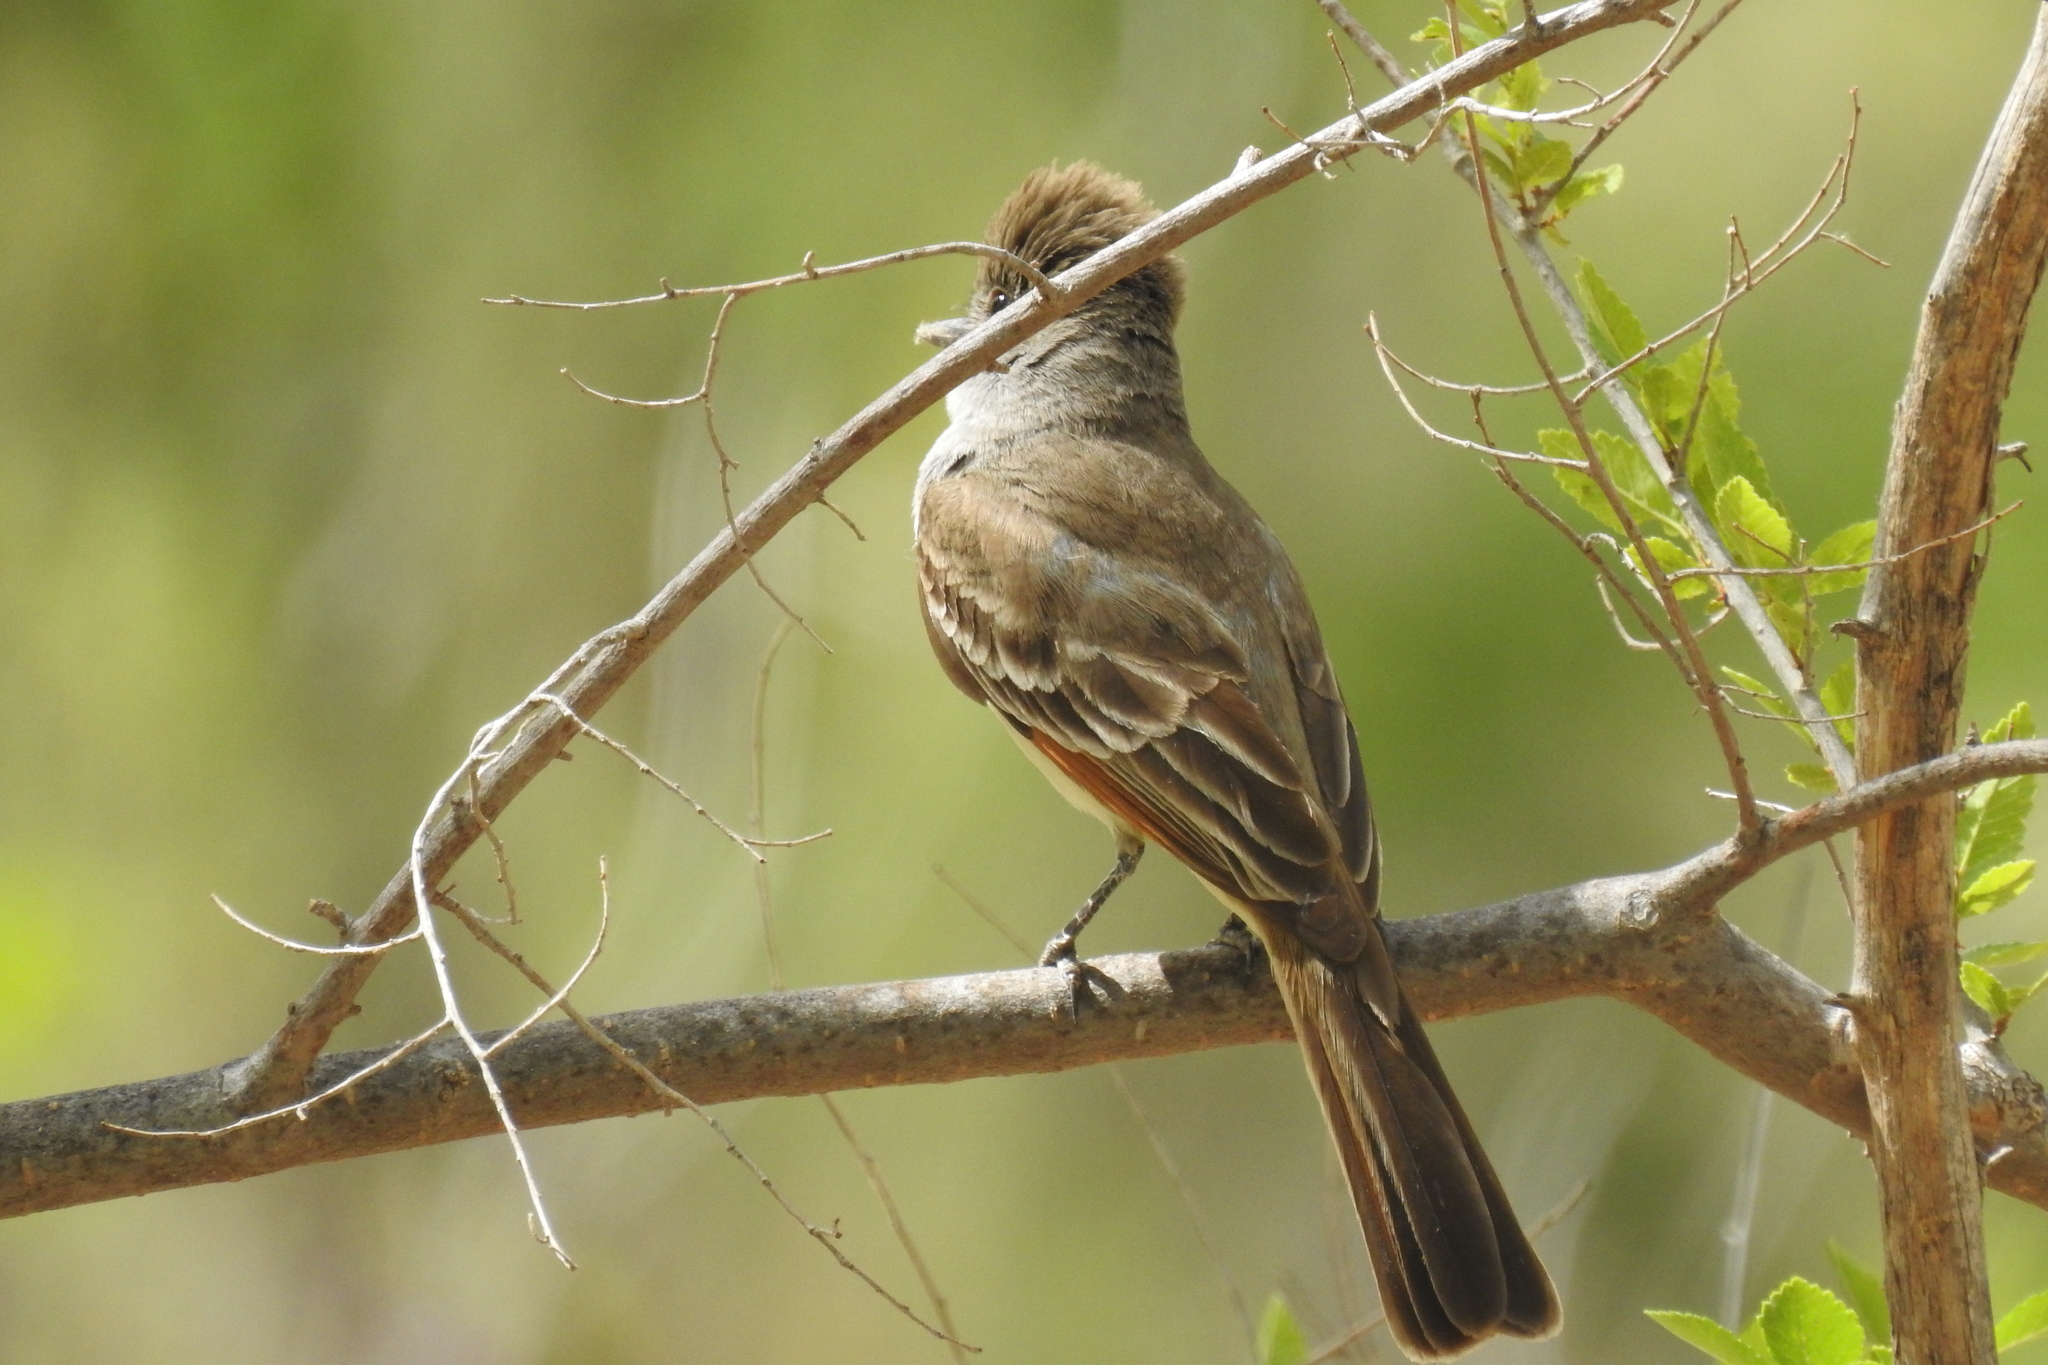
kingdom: Animalia
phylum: Chordata
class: Aves
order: Passeriformes
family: Tyrannidae
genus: Myiarchus
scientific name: Myiarchus cinerascens
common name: Ash-throated flycatcher
